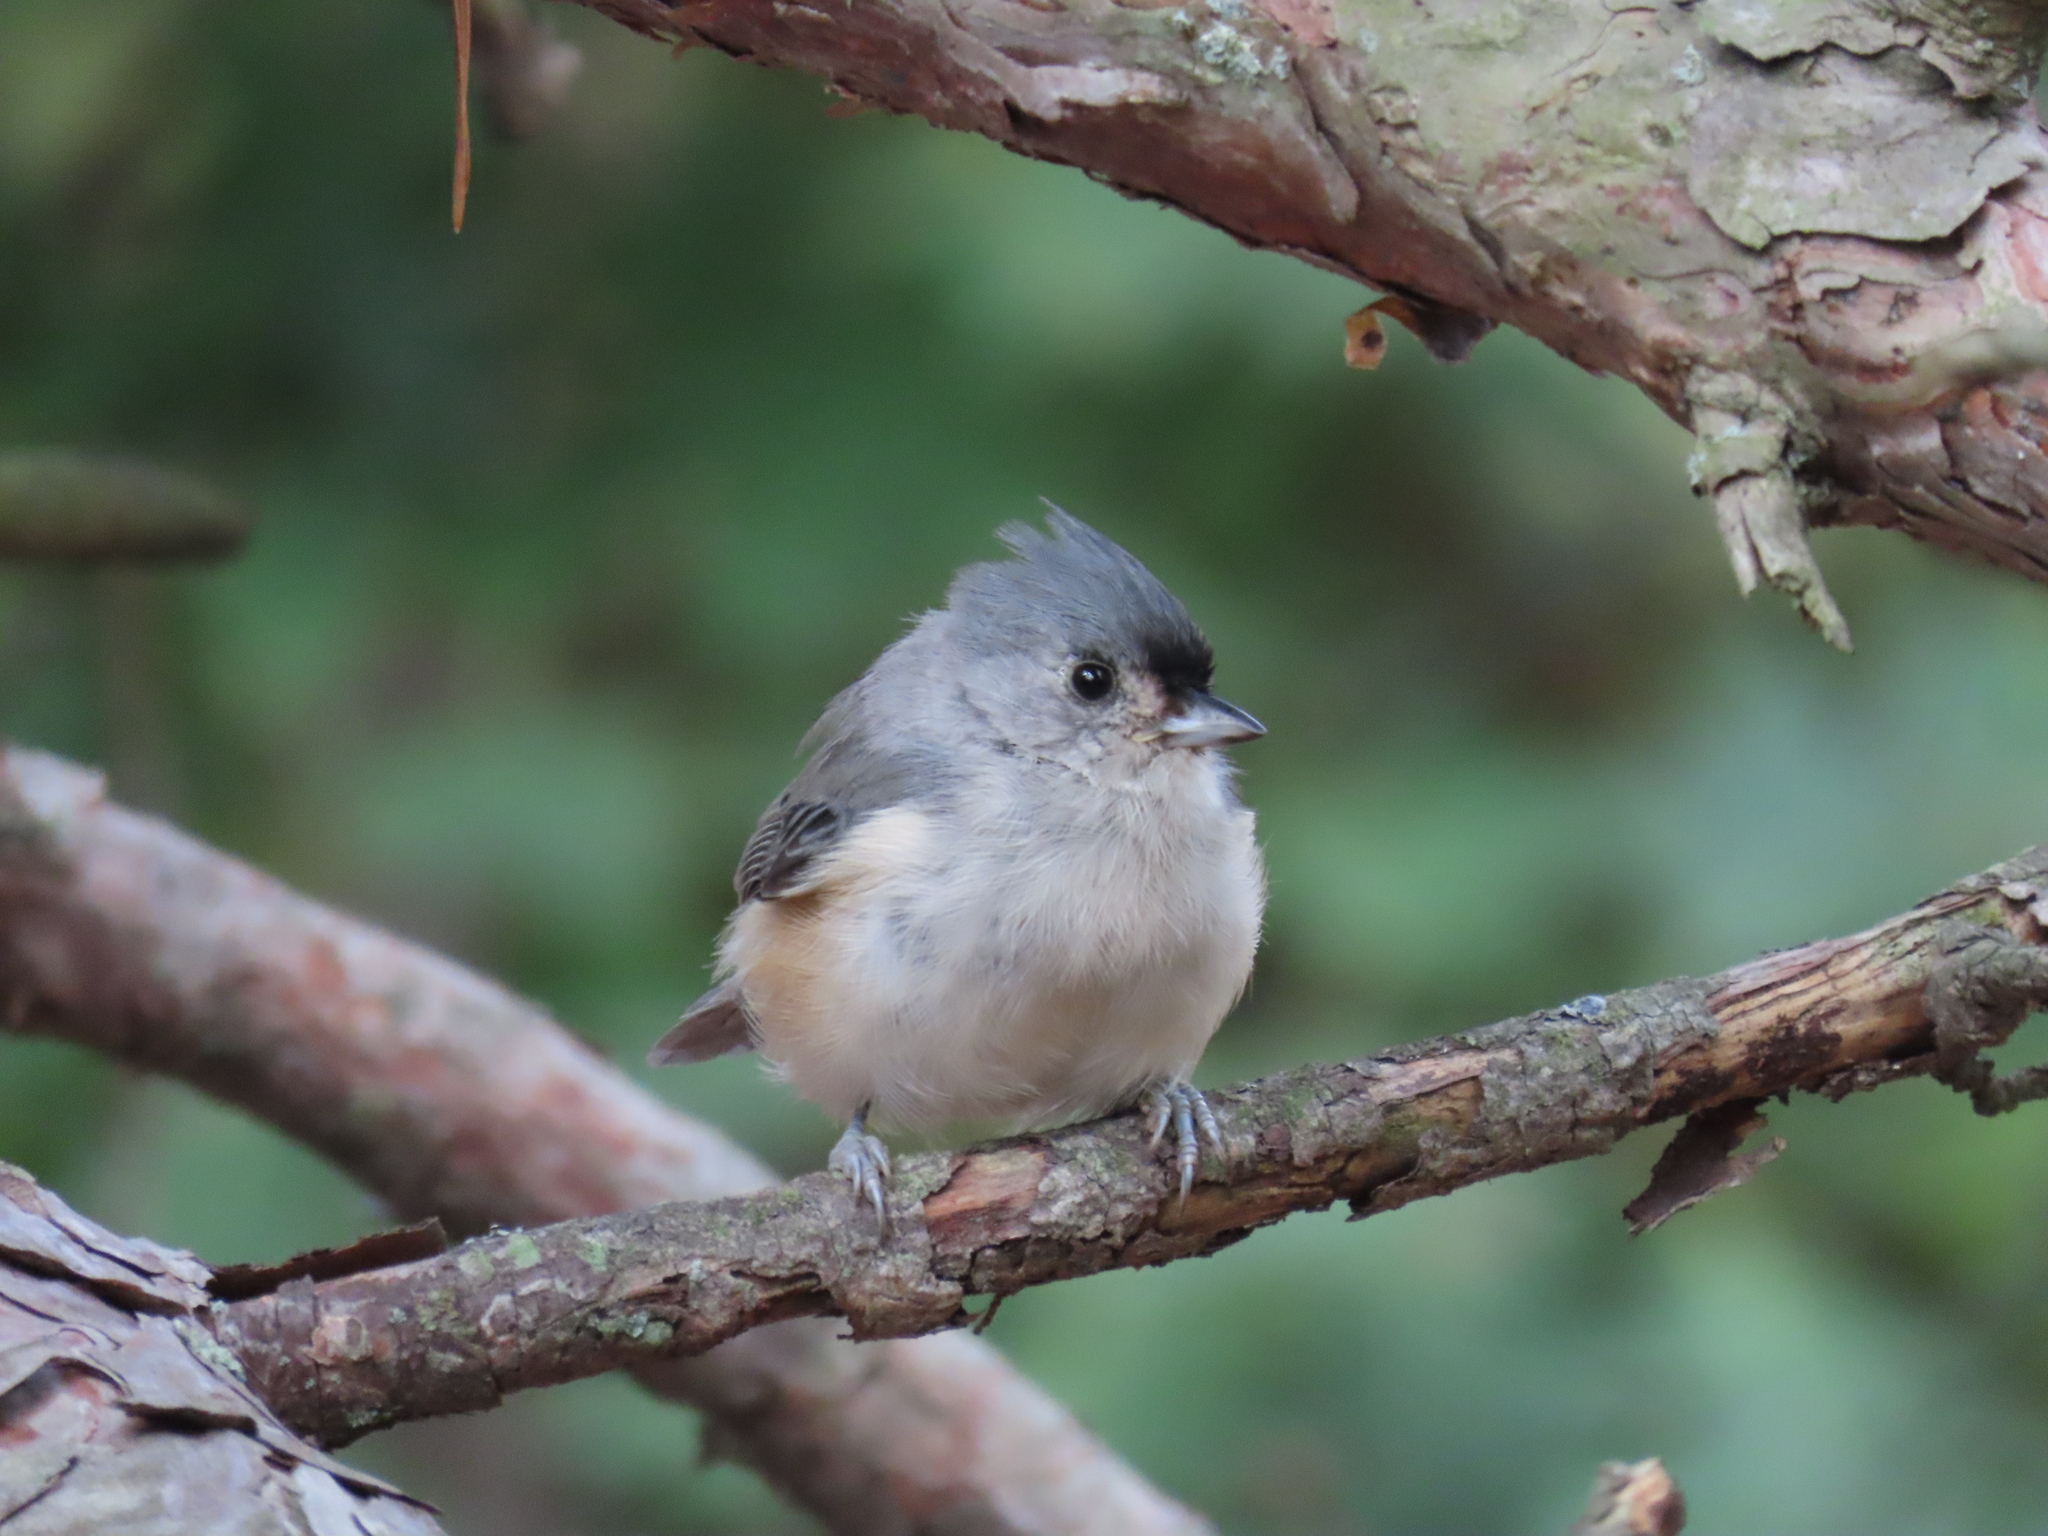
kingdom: Animalia
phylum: Chordata
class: Aves
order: Passeriformes
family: Paridae
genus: Baeolophus
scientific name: Baeolophus bicolor
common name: Tufted titmouse
